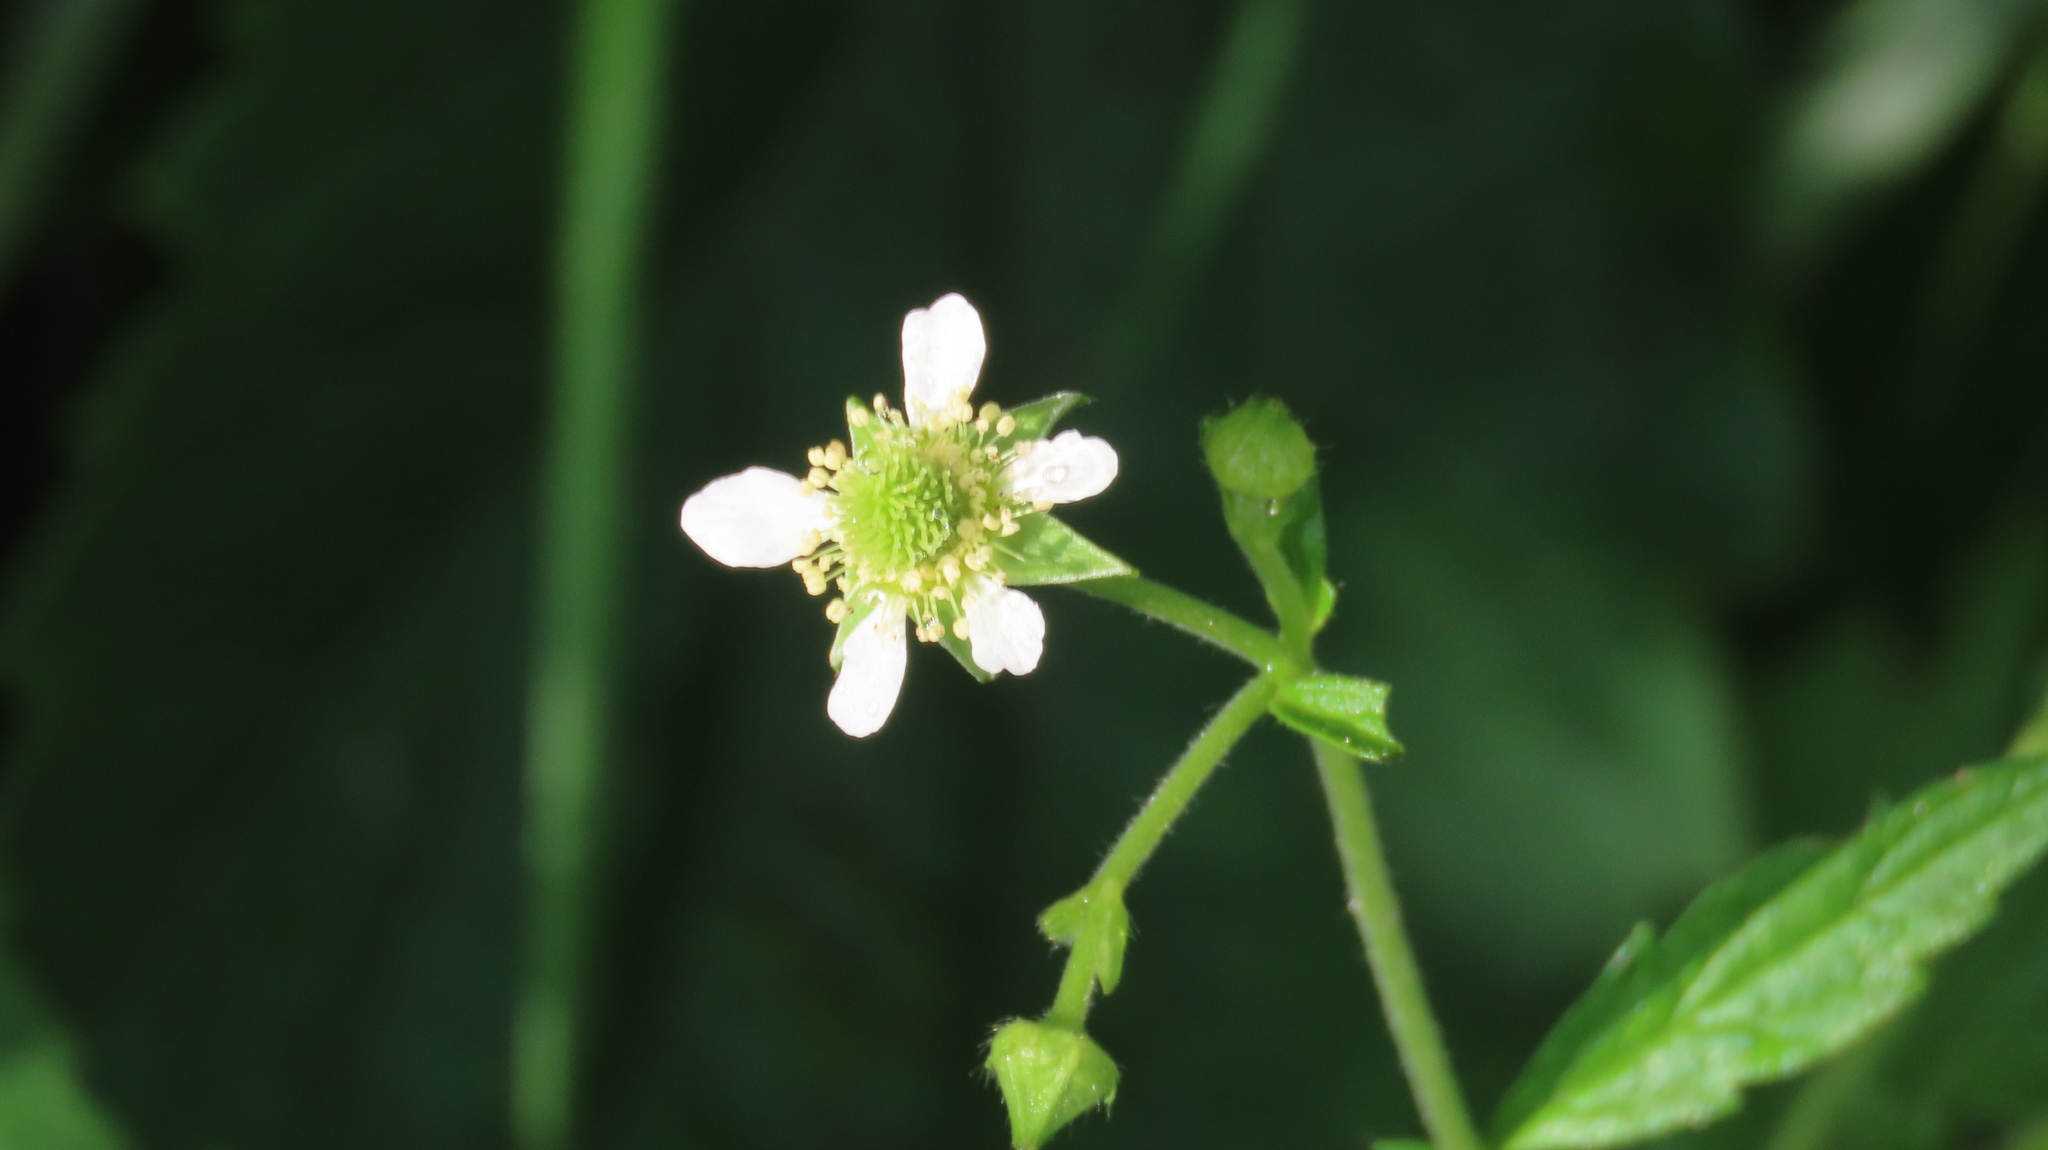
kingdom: Plantae
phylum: Tracheophyta
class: Magnoliopsida
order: Rosales
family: Rosaceae
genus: Geum
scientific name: Geum canadense
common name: White avens
